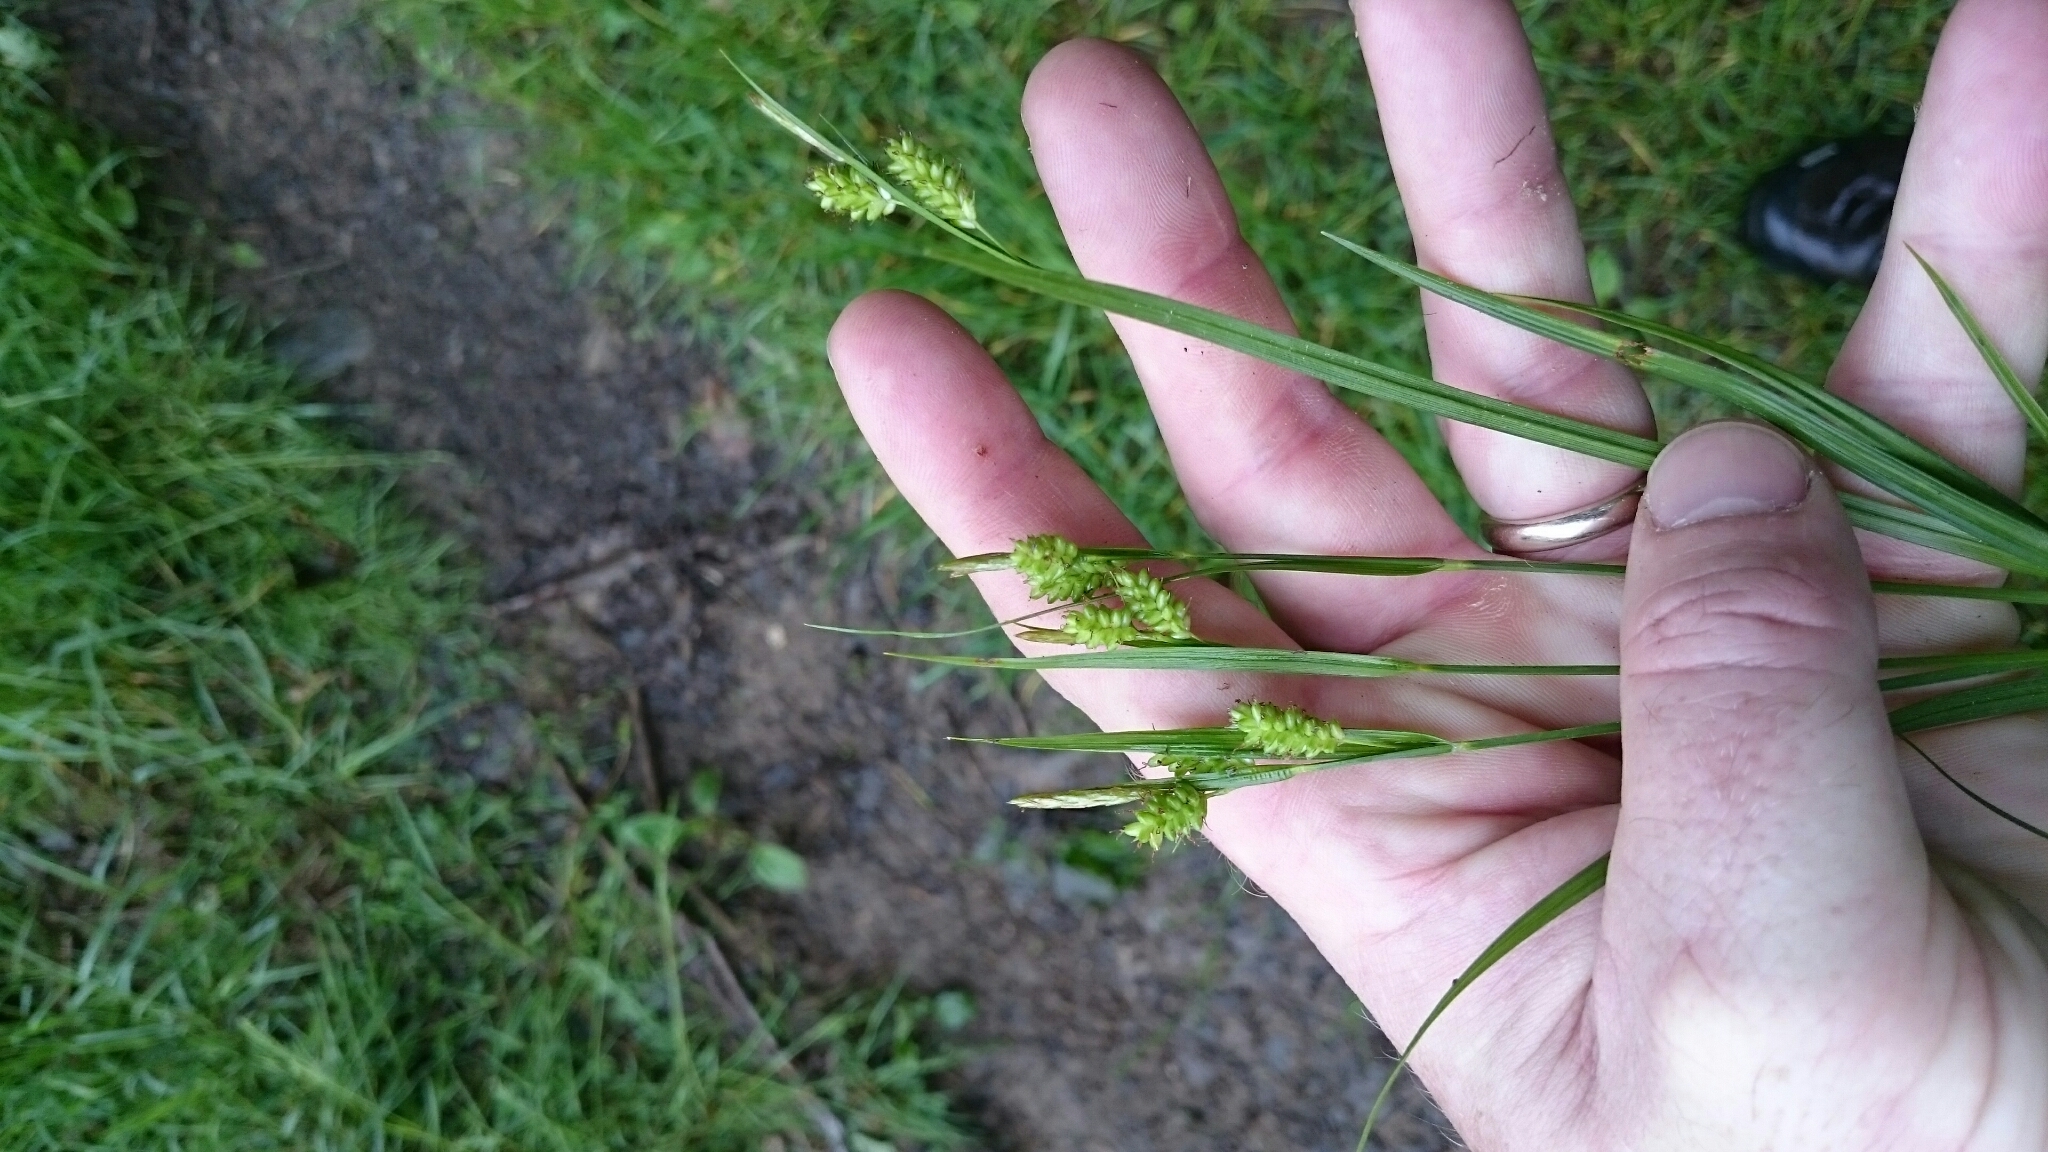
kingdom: Plantae
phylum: Tracheophyta
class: Liliopsida
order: Poales
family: Cyperaceae
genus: Carex
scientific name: Carex pallescens
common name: Pale sedge
